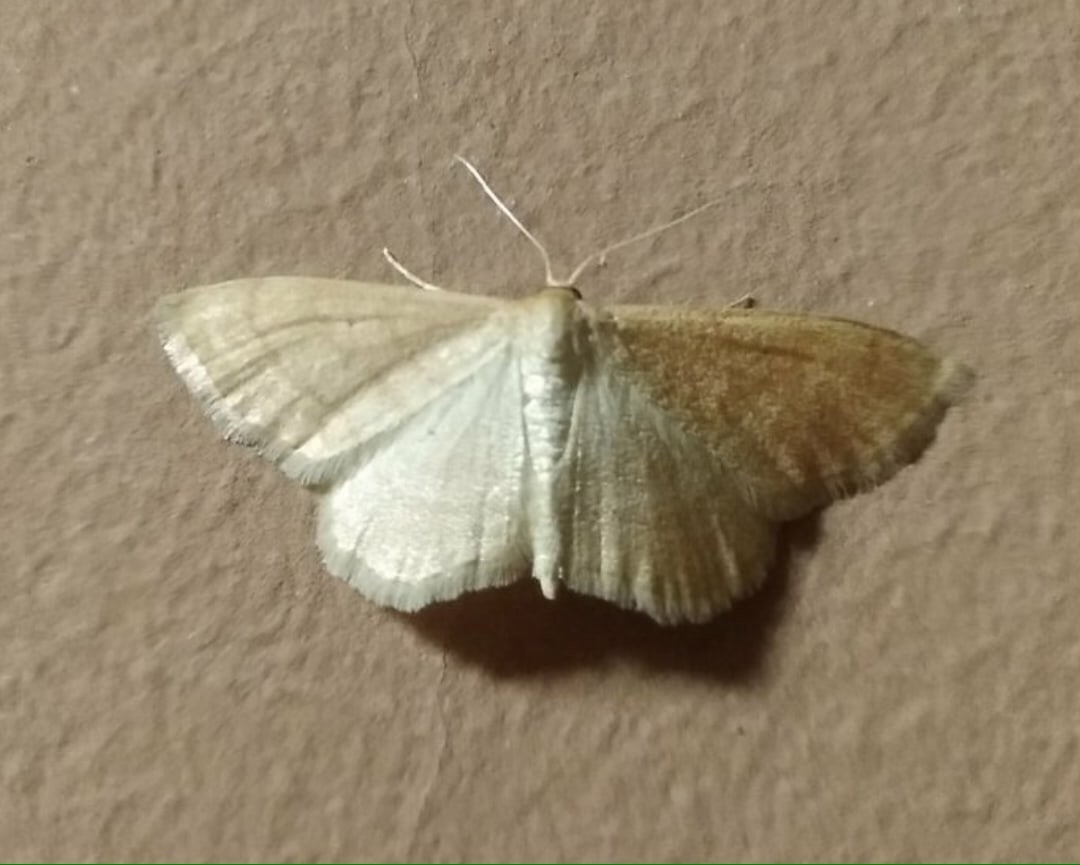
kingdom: Animalia
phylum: Arthropoda
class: Insecta
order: Lepidoptera
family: Geometridae
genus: Idaea
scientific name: Idaea rufaria
